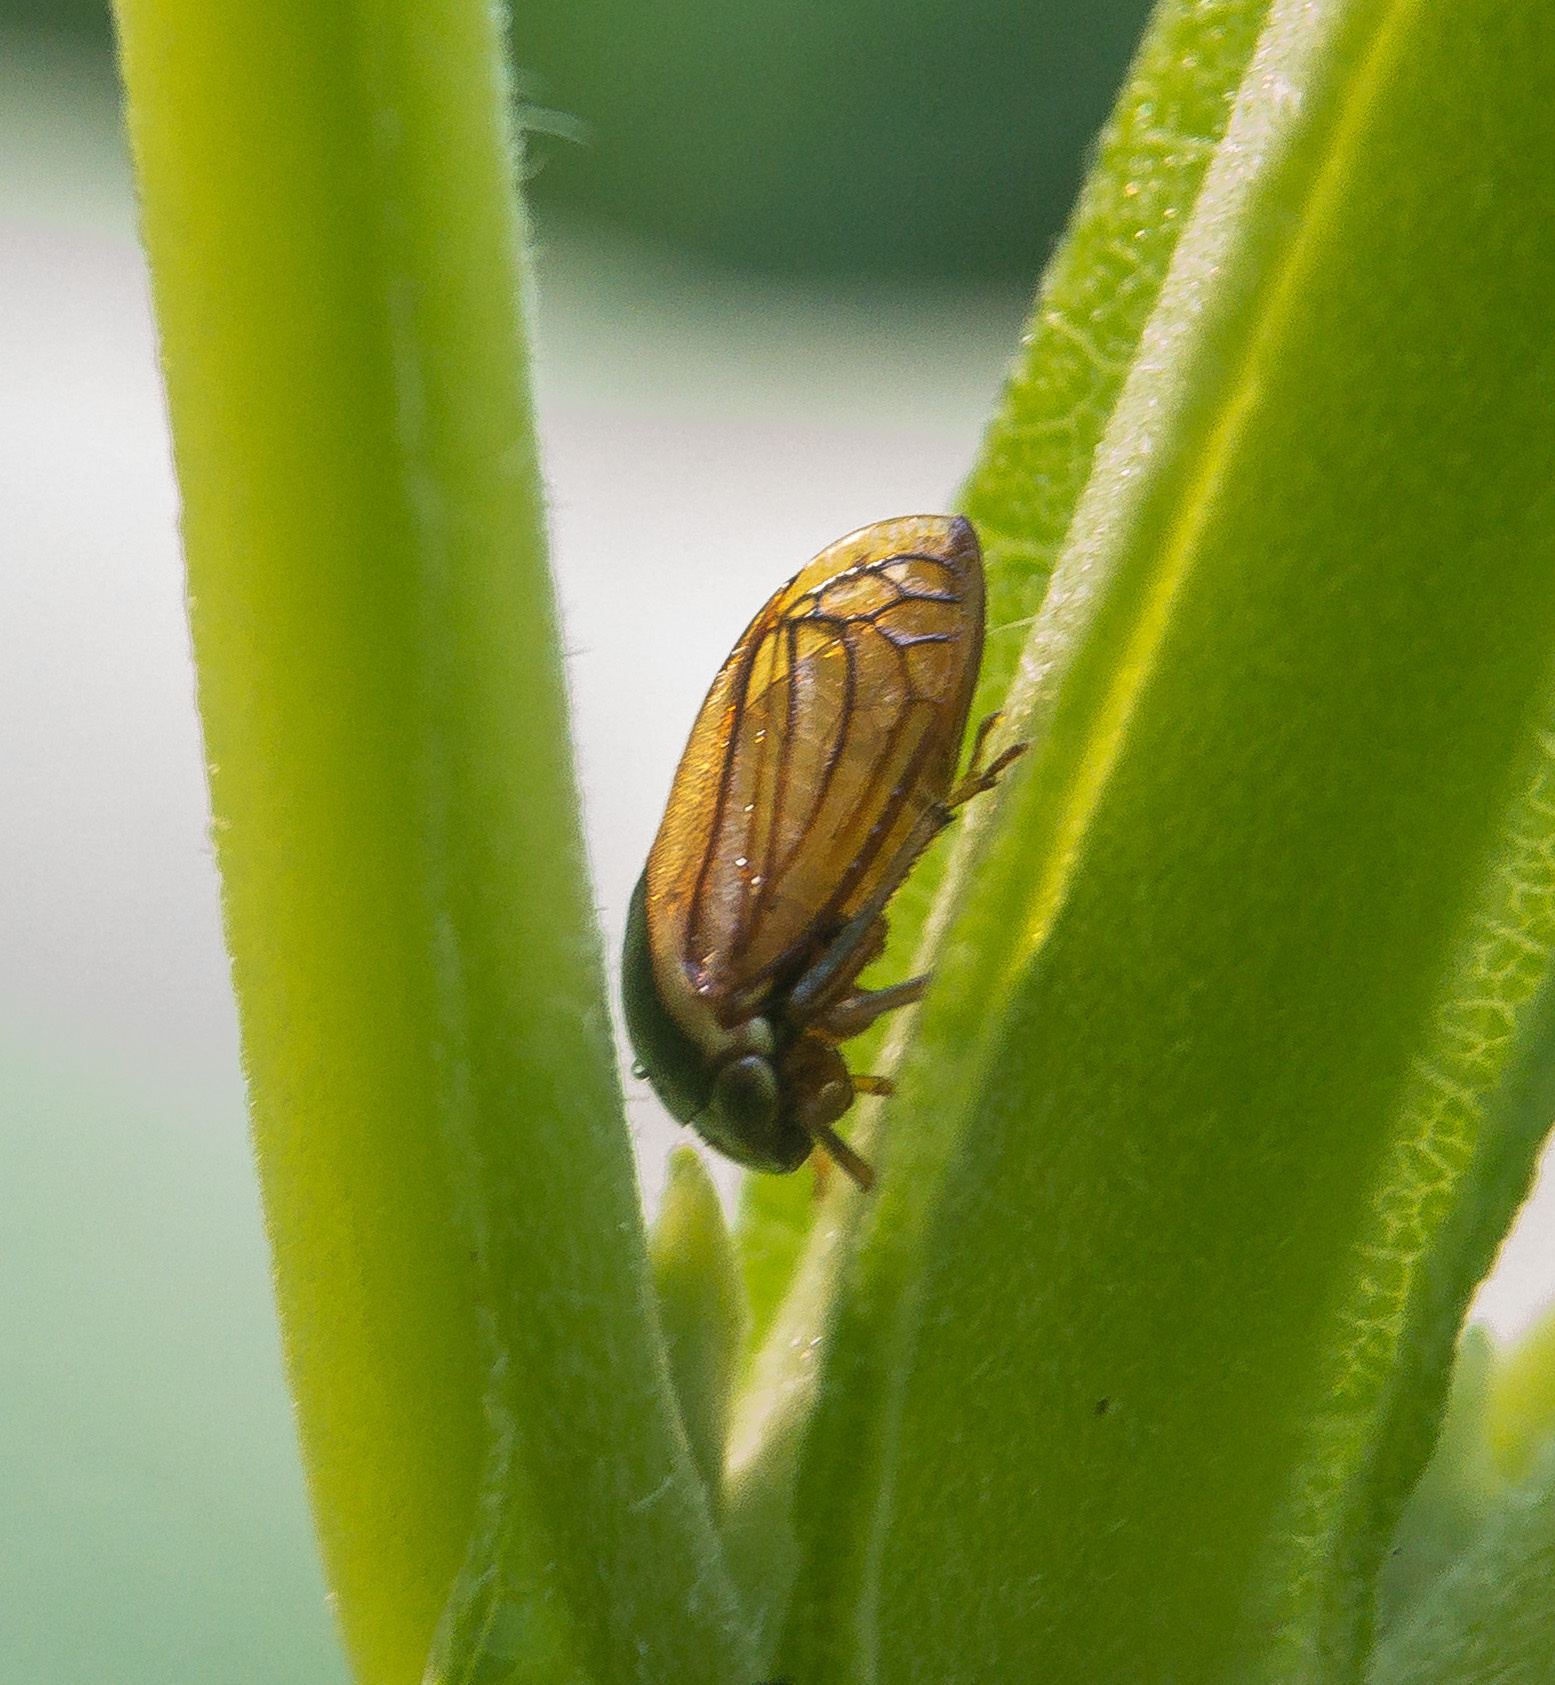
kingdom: Animalia
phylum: Arthropoda
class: Insecta
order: Hemiptera
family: Membracidae
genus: Acutalis
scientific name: Acutalis tartarea
